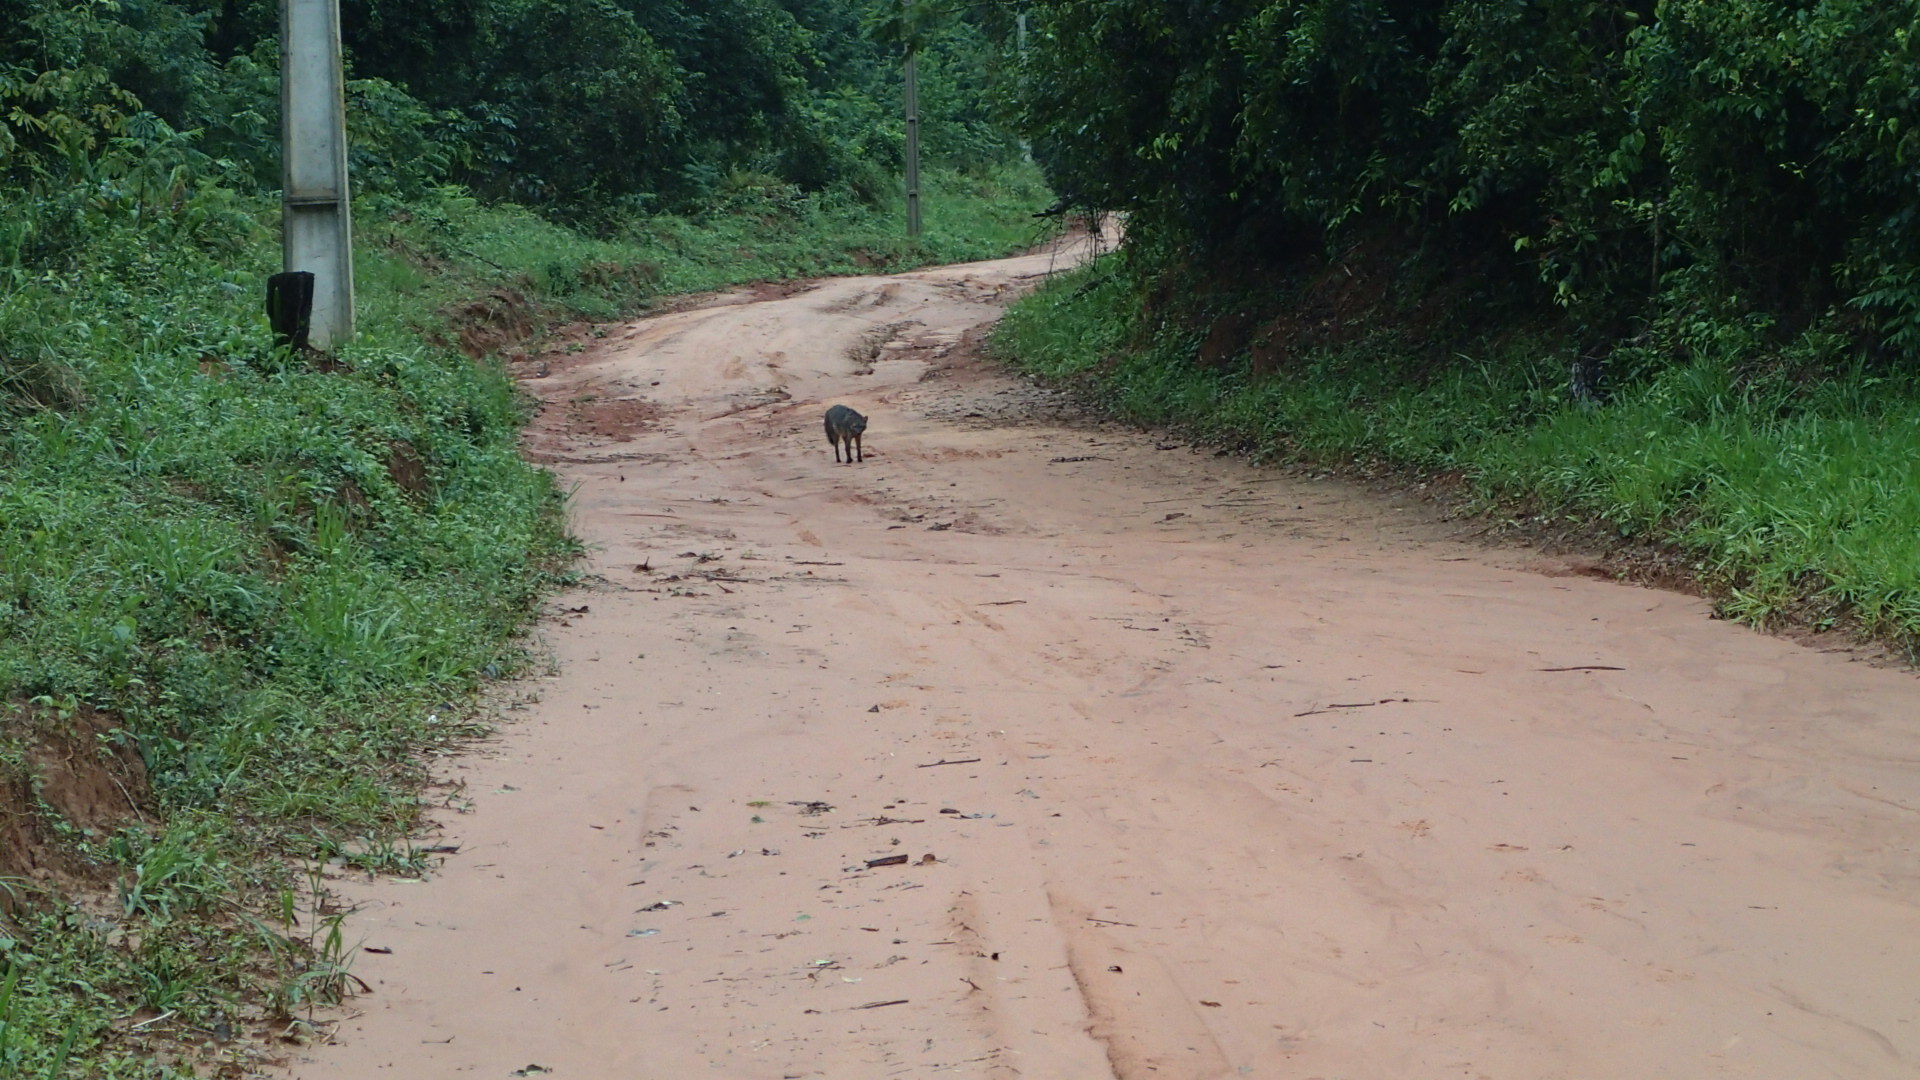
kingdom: Animalia
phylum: Chordata
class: Mammalia
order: Carnivora
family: Canidae
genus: Cerdocyon
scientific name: Cerdocyon thous
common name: Crab-eating fox
